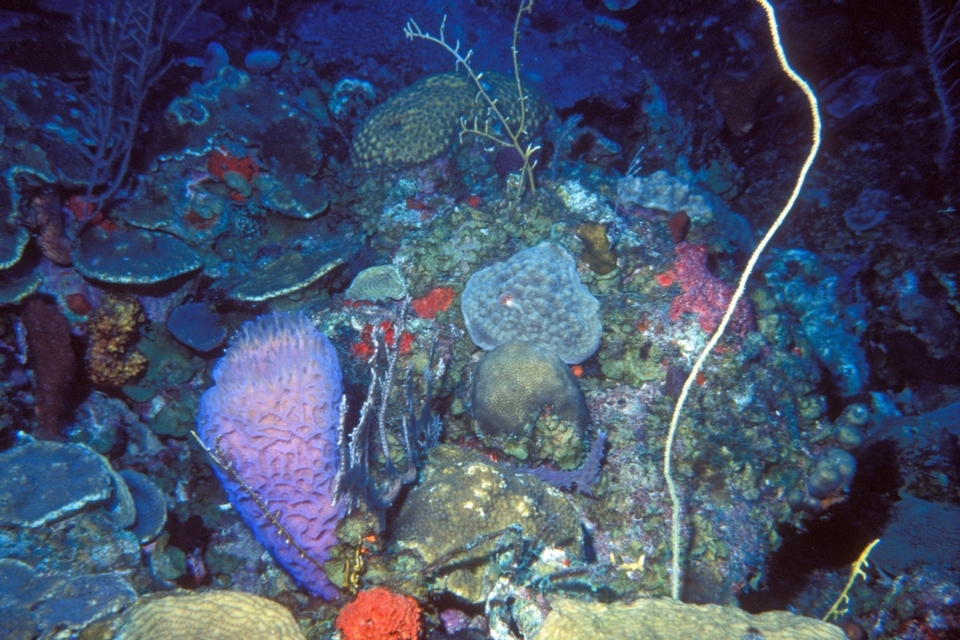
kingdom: Animalia
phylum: Porifera
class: Demospongiae
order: Haplosclerida
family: Callyspongiidae
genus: Callyspongia
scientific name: Callyspongia plicifera
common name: Azure vase sponge
